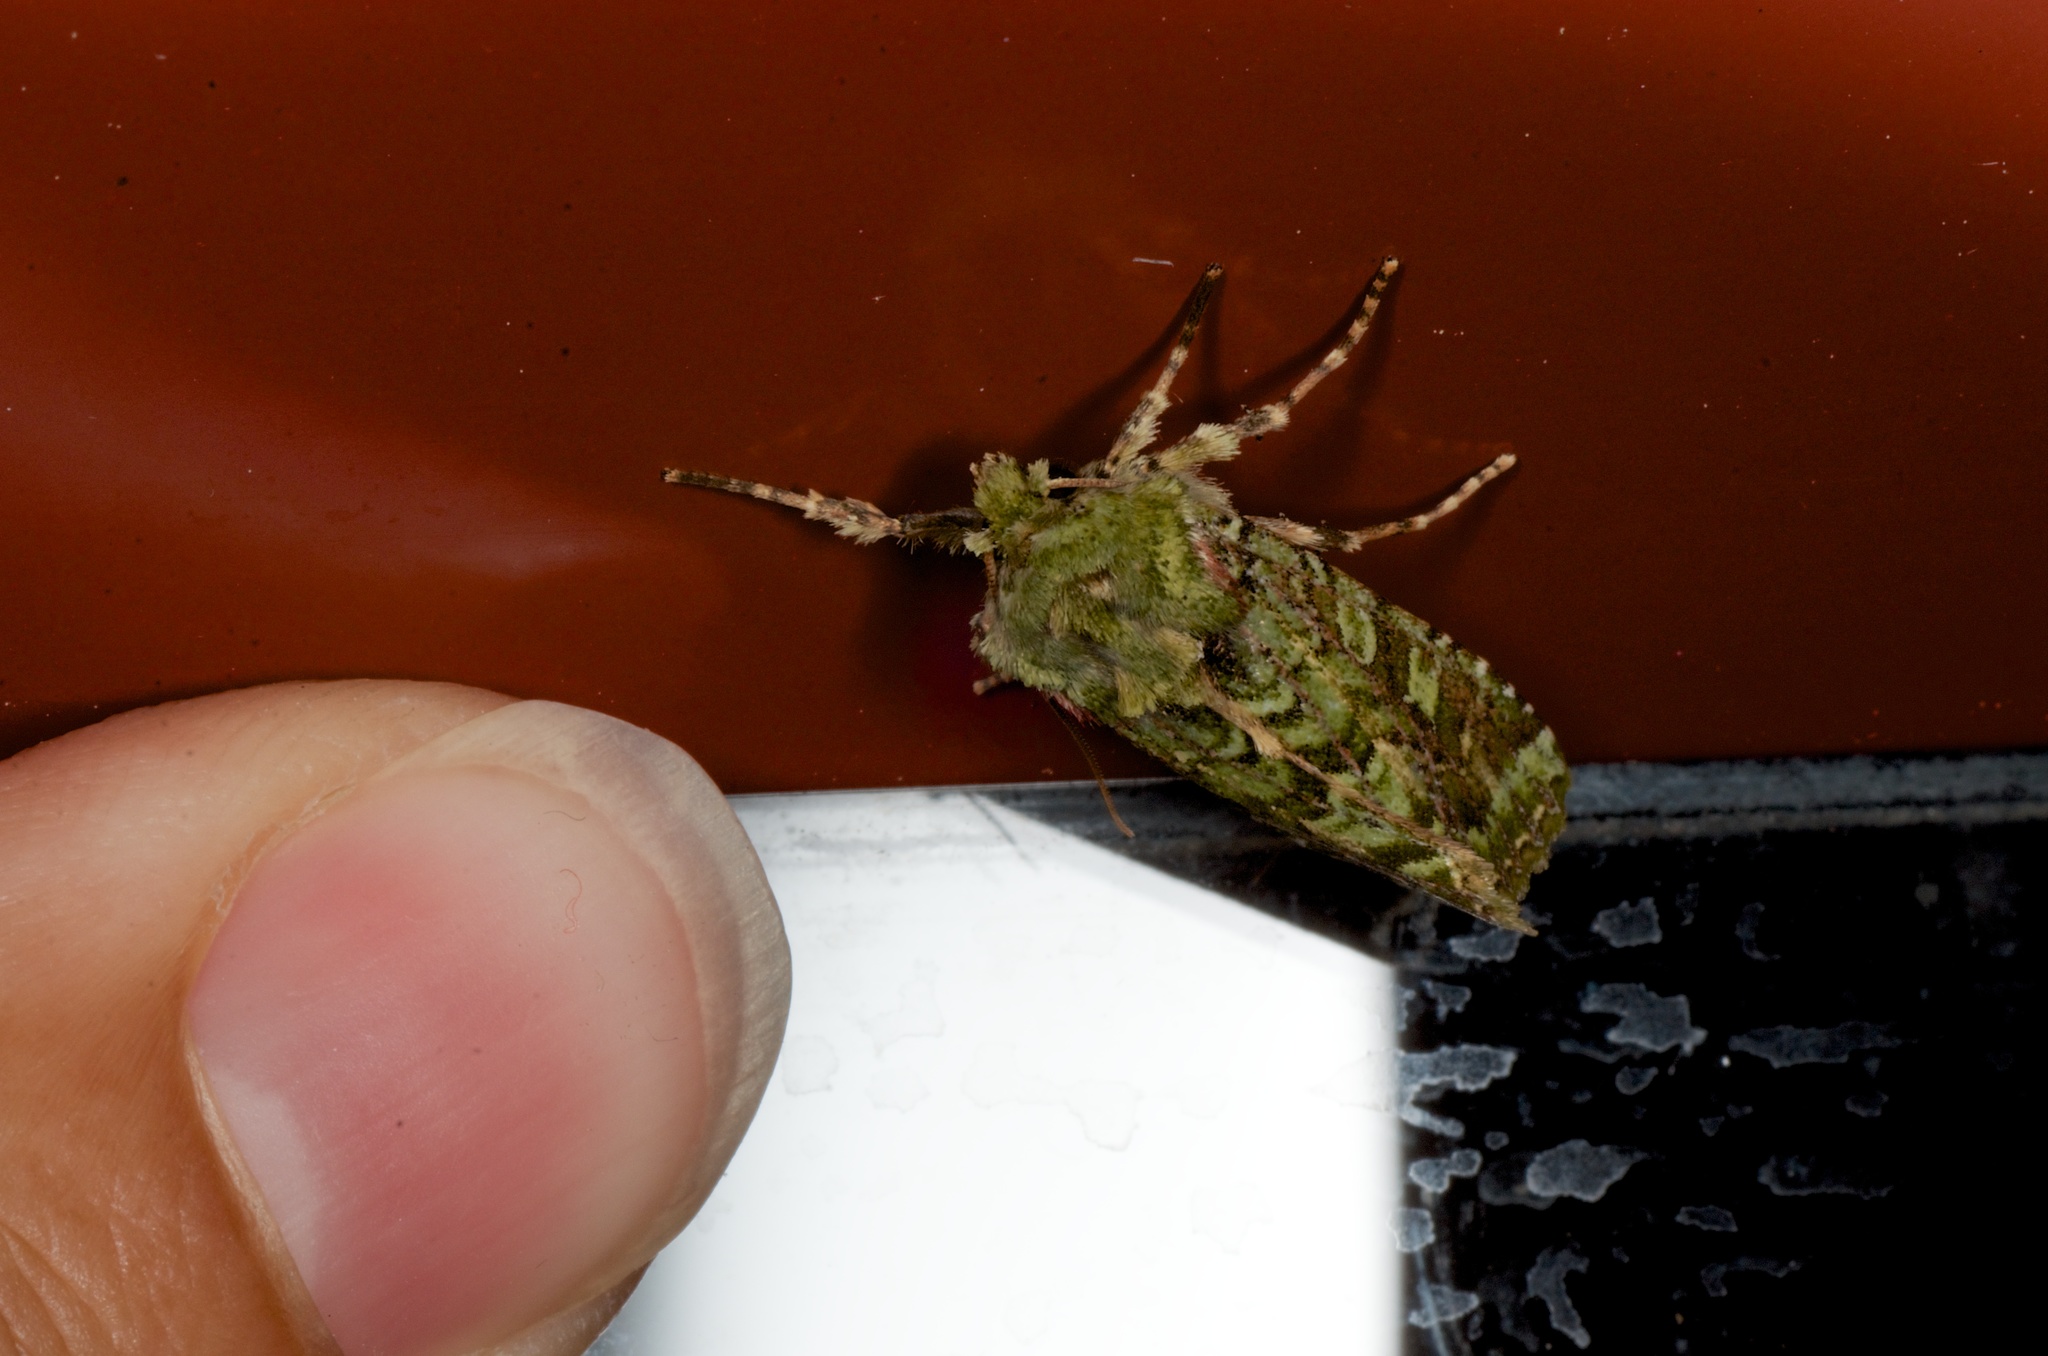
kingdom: Animalia
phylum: Arthropoda
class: Insecta
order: Lepidoptera
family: Noctuidae
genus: Feredayia
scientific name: Feredayia grammosa
